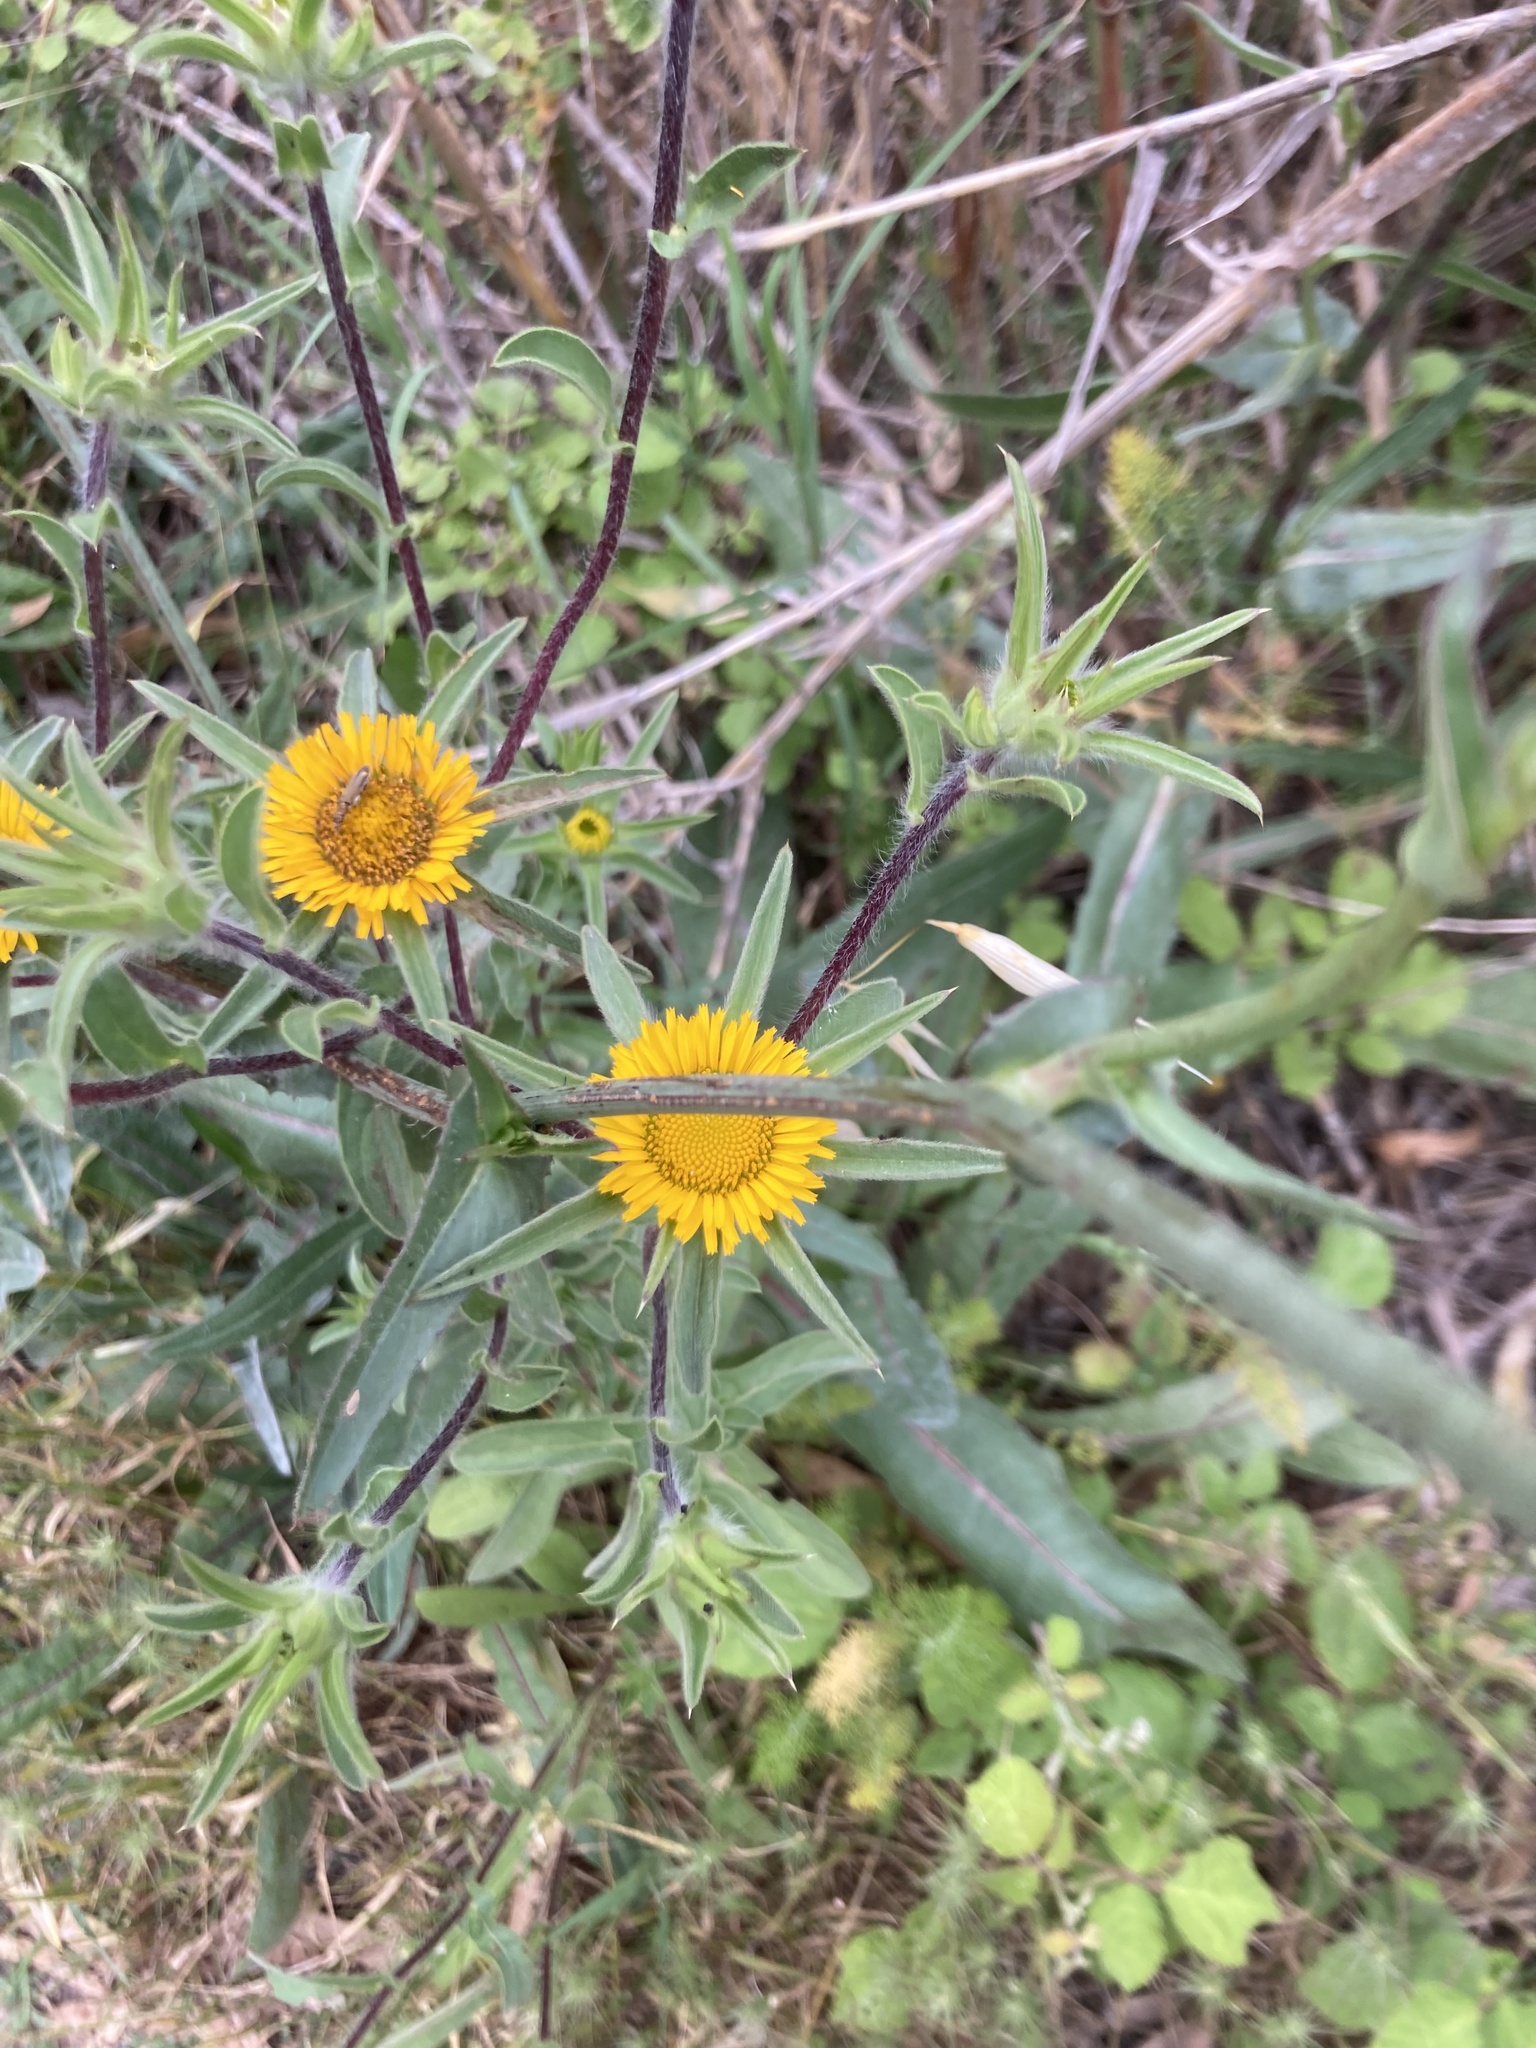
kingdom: Plantae
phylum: Tracheophyta
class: Magnoliopsida
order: Asterales
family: Asteraceae
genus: Pallenis
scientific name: Pallenis spinosa
